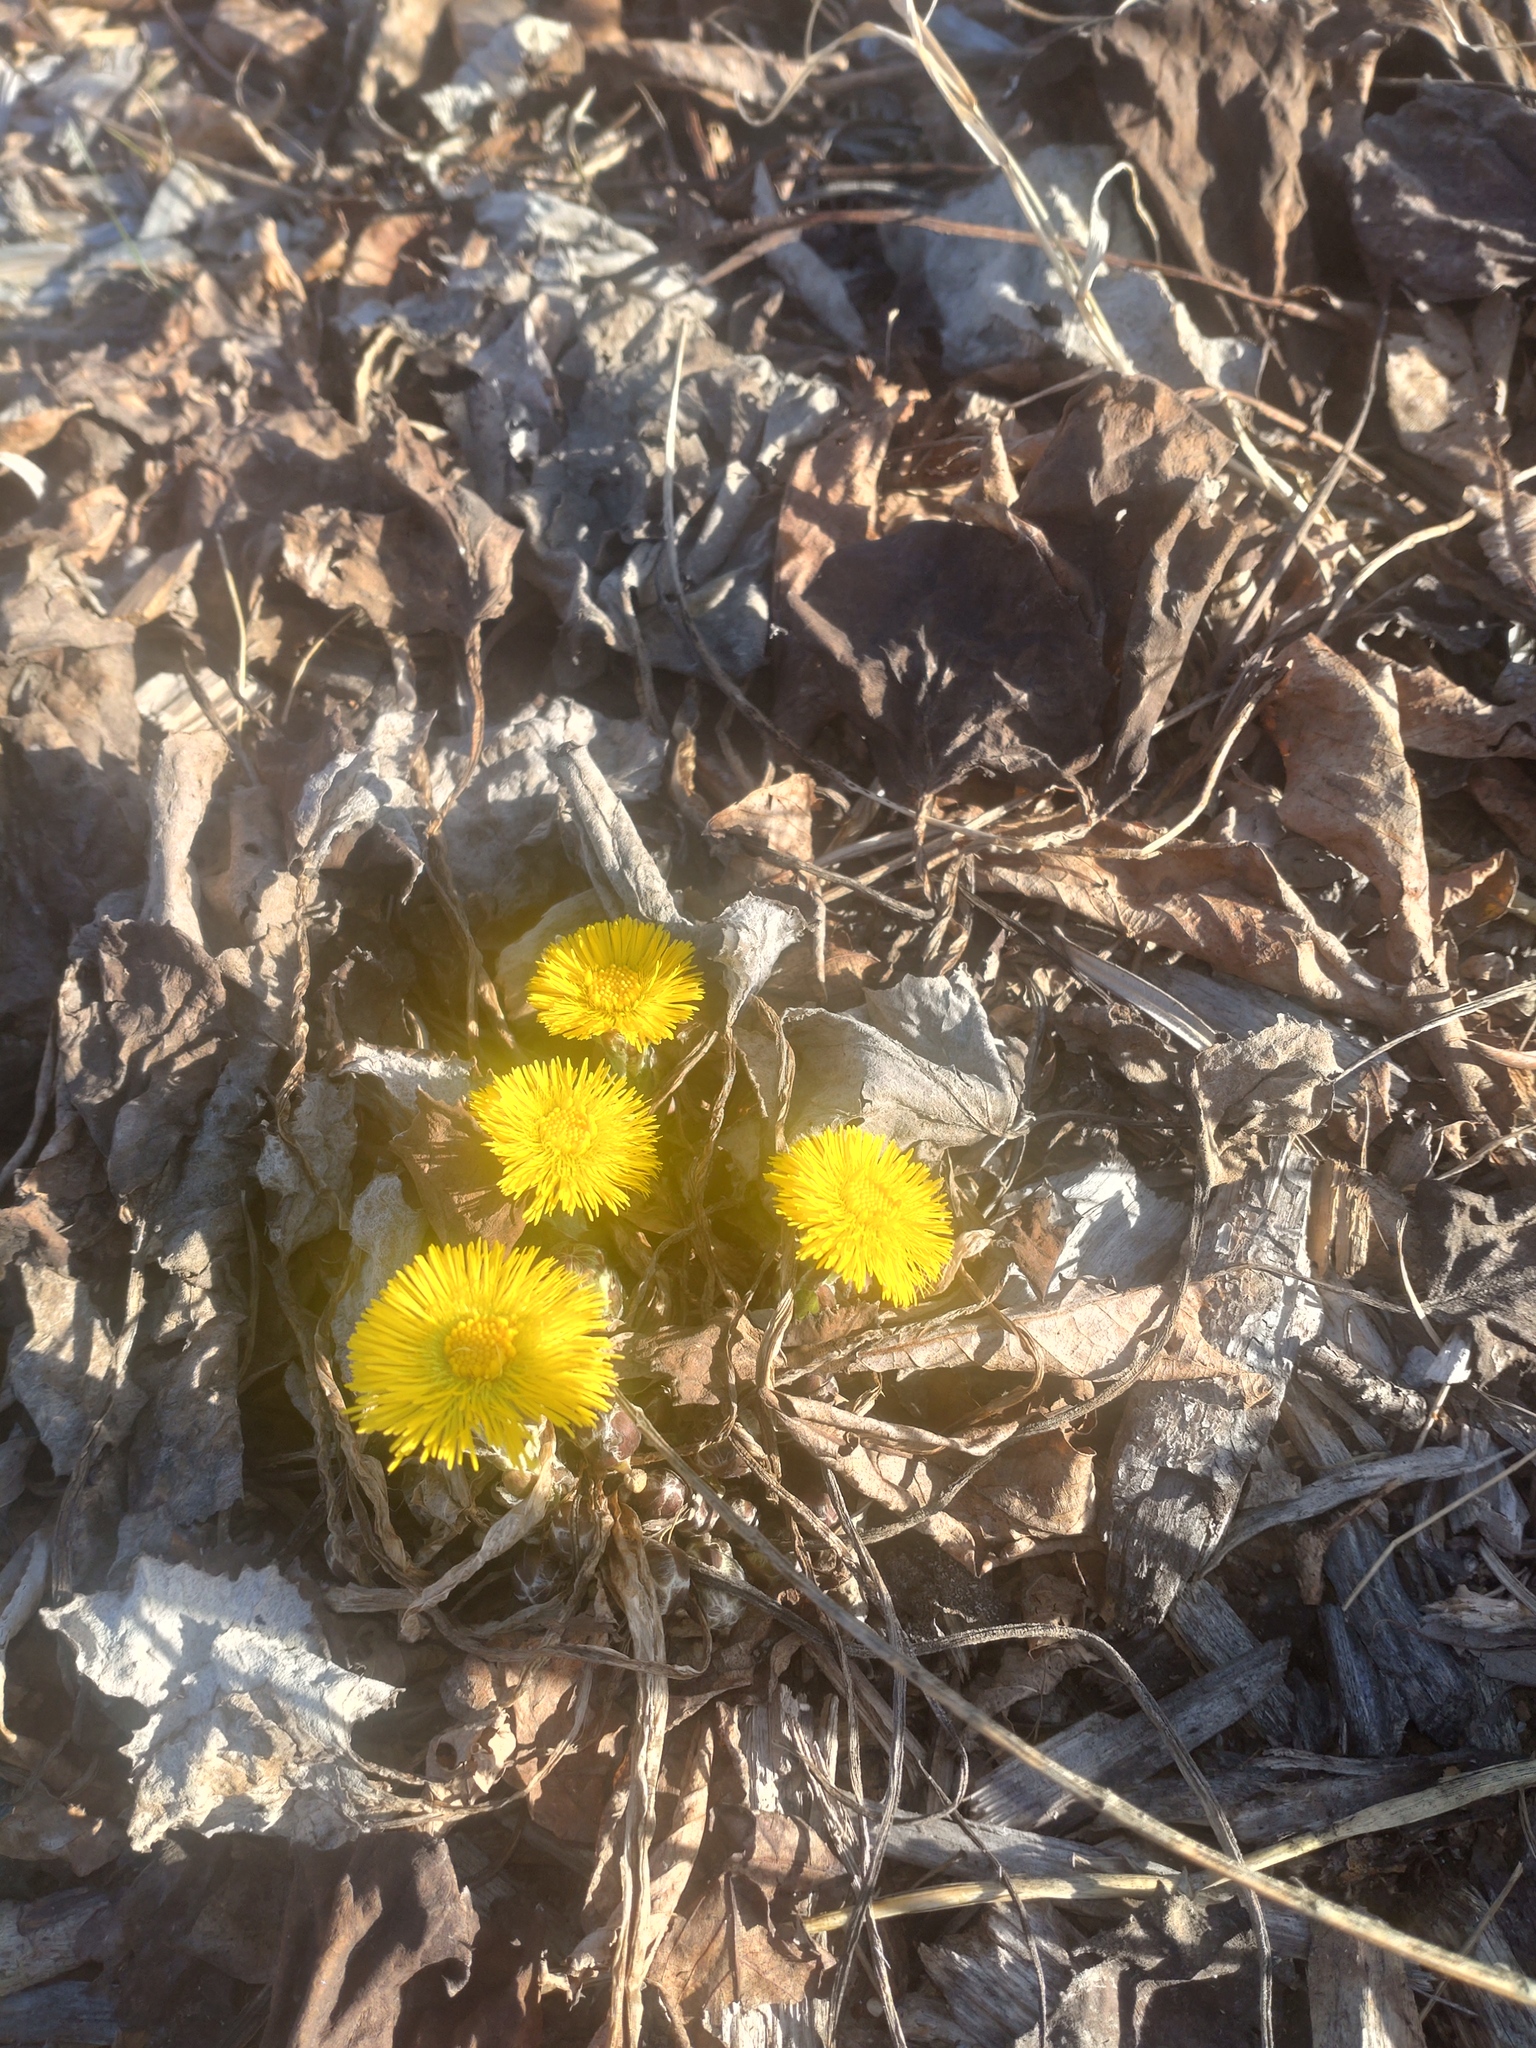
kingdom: Plantae
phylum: Tracheophyta
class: Magnoliopsida
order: Asterales
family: Asteraceae
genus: Tussilago
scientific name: Tussilago farfara
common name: Coltsfoot
